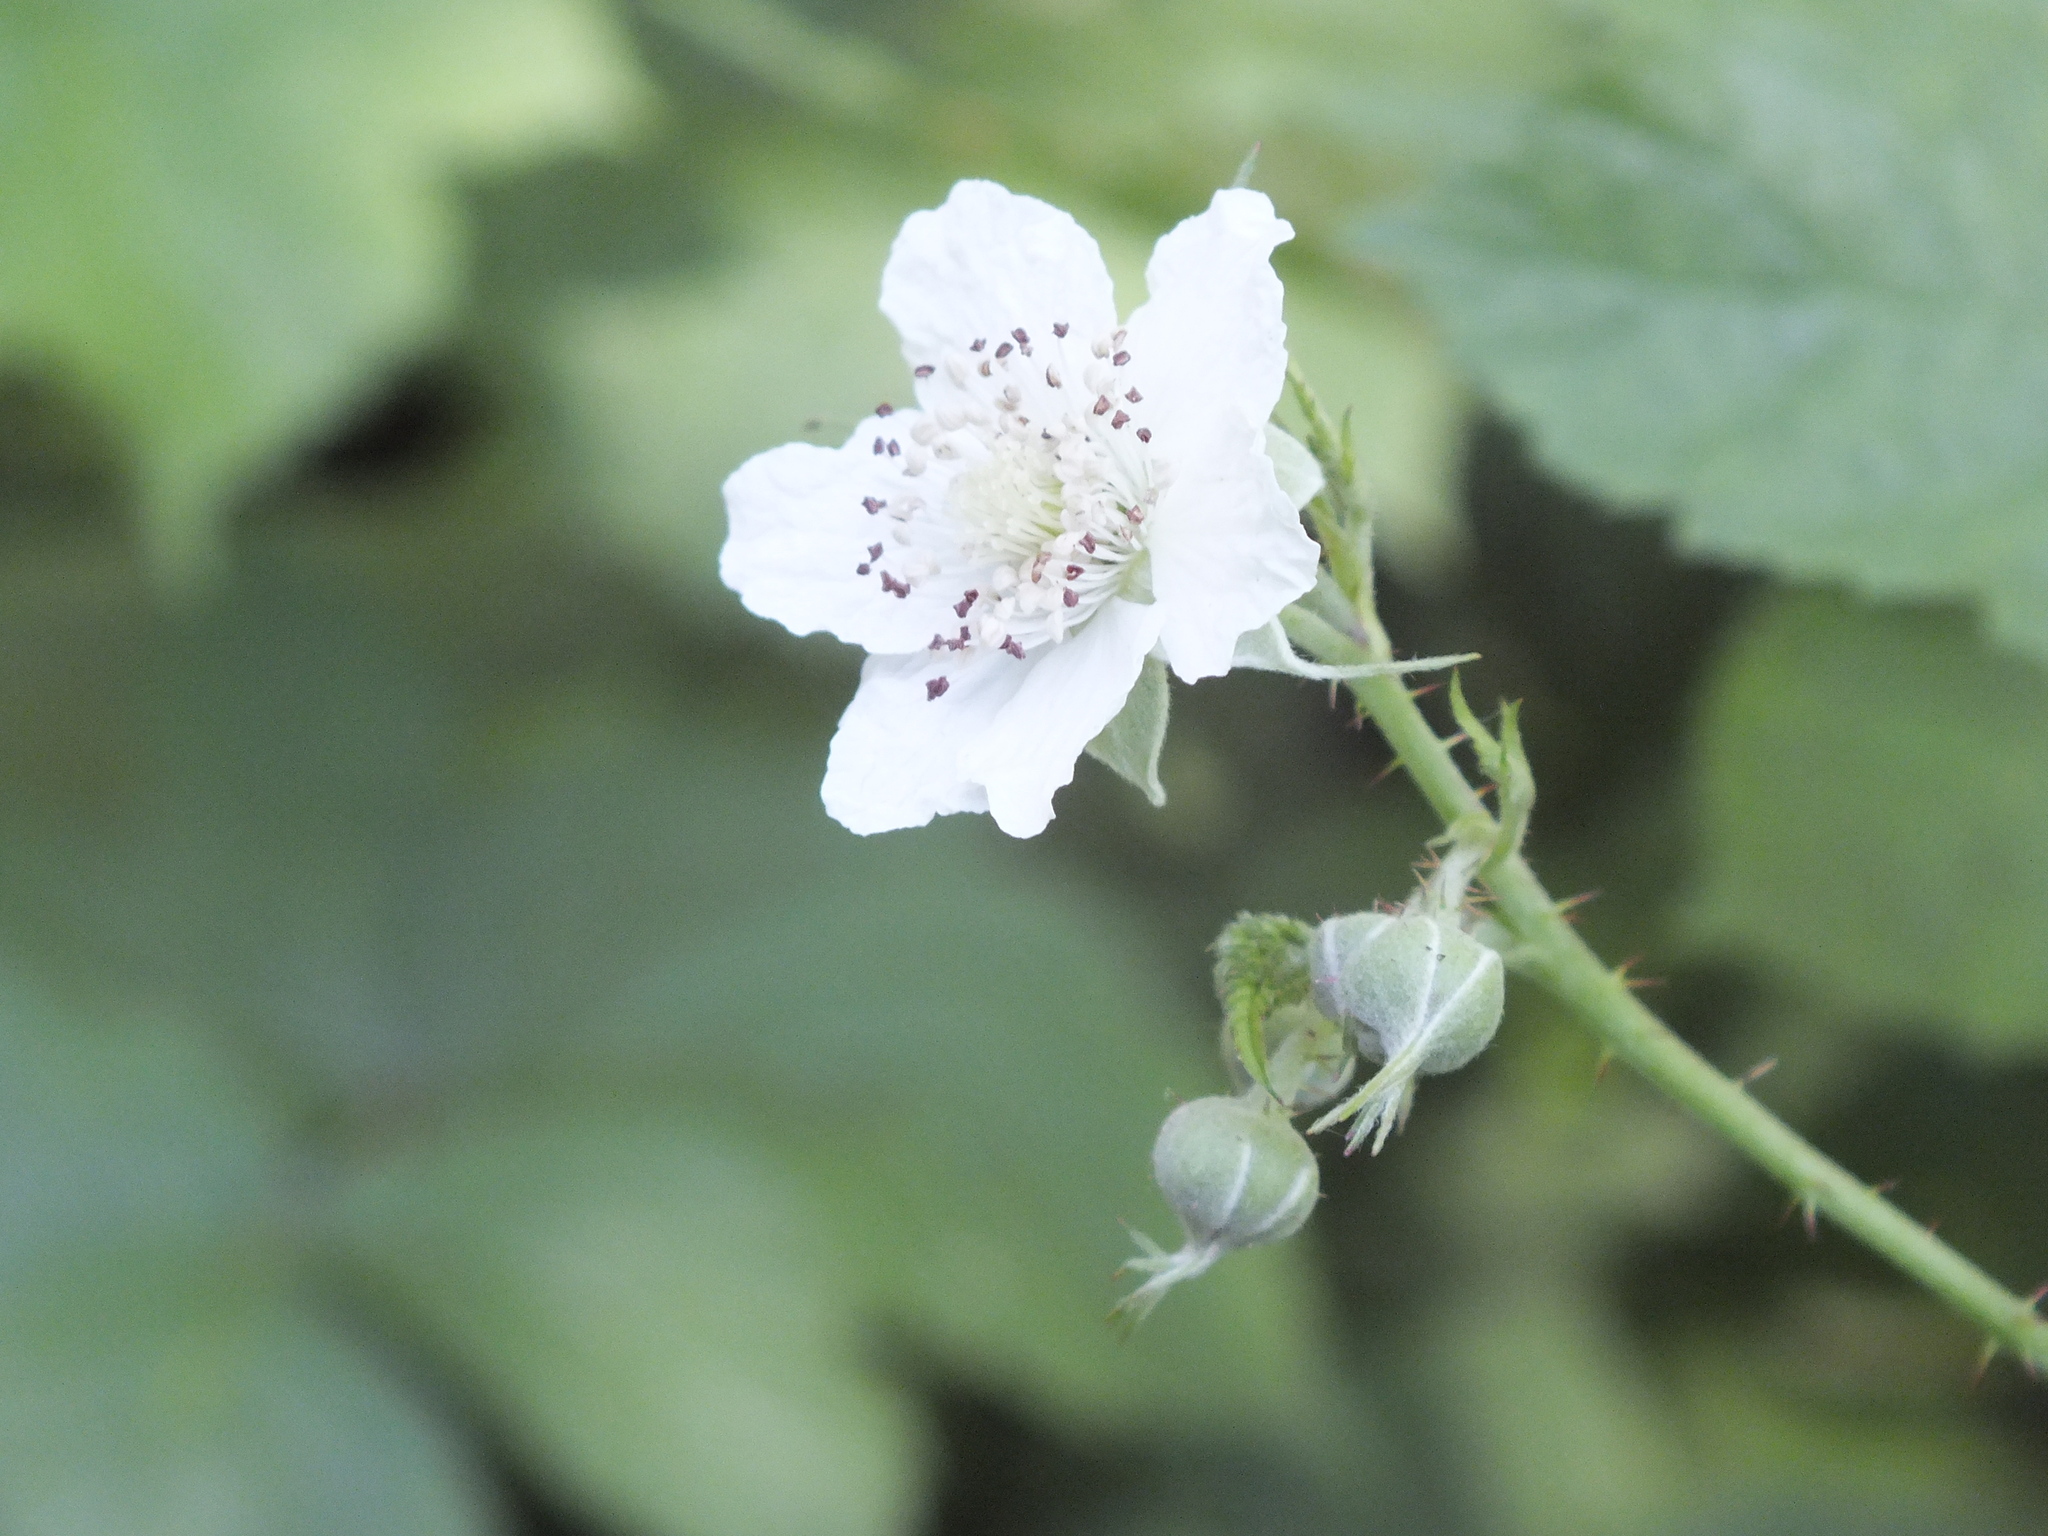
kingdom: Plantae
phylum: Tracheophyta
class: Magnoliopsida
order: Rosales
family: Rosaceae
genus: Rubus
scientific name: Rubus caesius
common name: Dewberry
